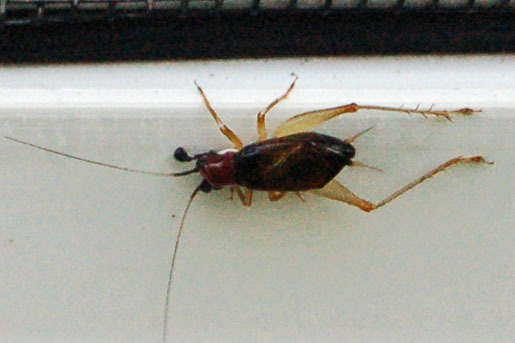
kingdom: Animalia
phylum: Arthropoda
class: Insecta
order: Orthoptera
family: Trigonidiidae
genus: Phyllopalpus
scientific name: Phyllopalpus pulchellus
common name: Handsome trig
